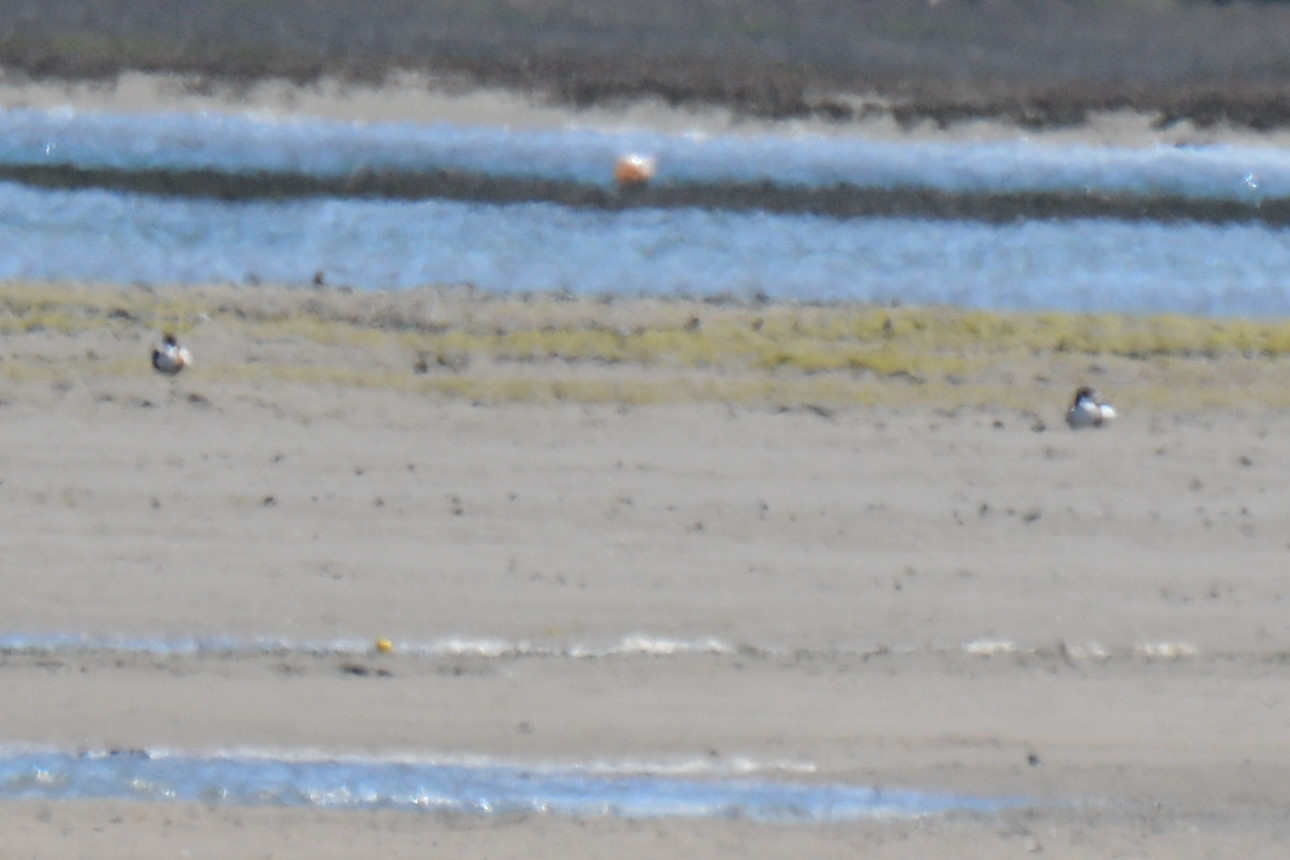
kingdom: Animalia
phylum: Chordata
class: Aves
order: Anseriformes
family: Anatidae
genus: Tadorna
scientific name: Tadorna tadorna
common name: Common shelduck
